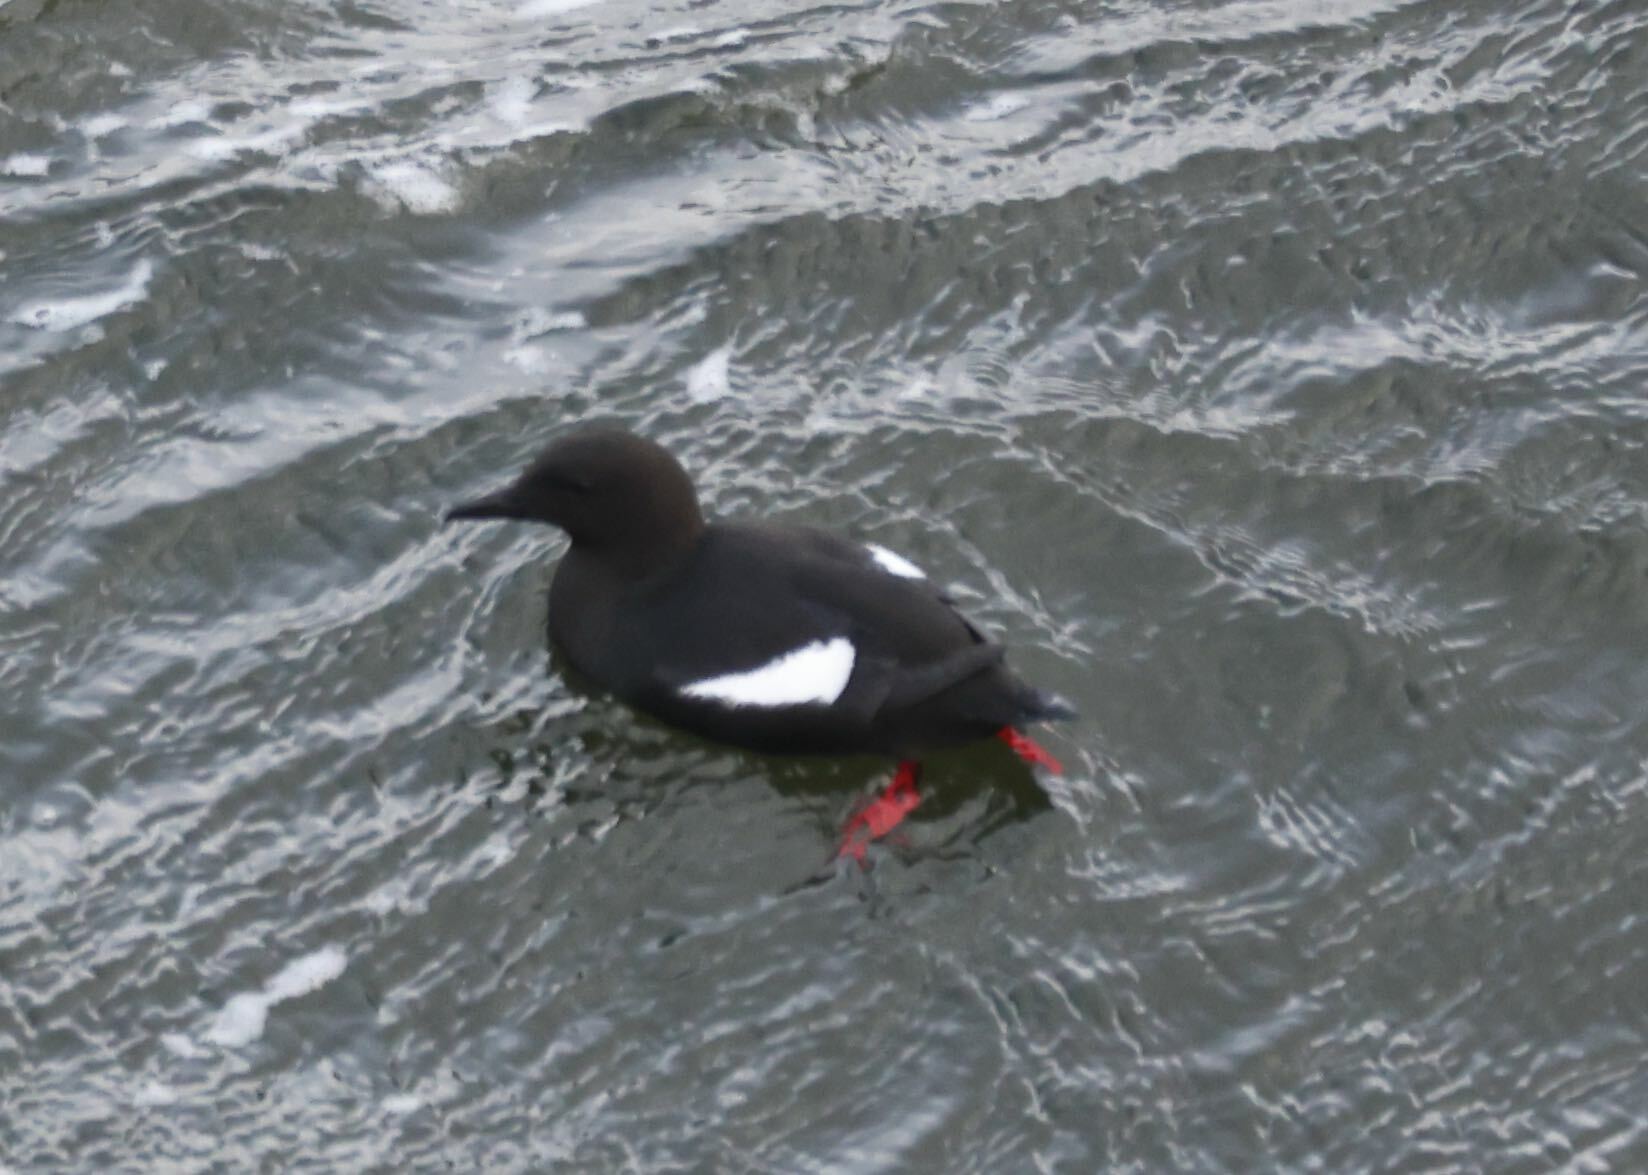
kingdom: Animalia
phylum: Chordata
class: Aves
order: Charadriiformes
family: Alcidae
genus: Cepphus
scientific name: Cepphus grylle
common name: Black guillemot
